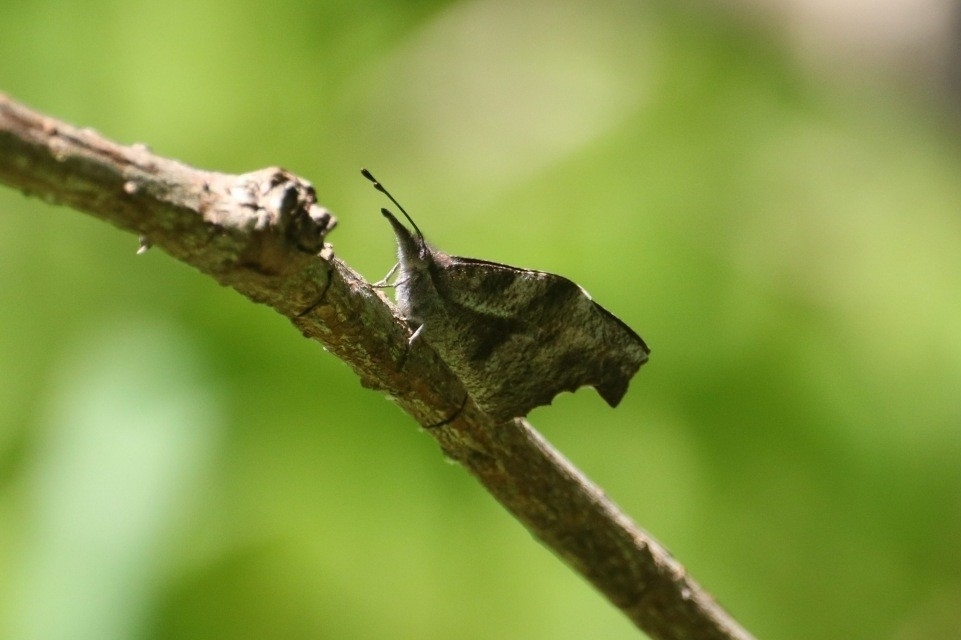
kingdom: Animalia
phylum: Arthropoda
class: Insecta
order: Lepidoptera
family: Nymphalidae
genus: Libytheana
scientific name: Libytheana carinenta
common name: American snout
